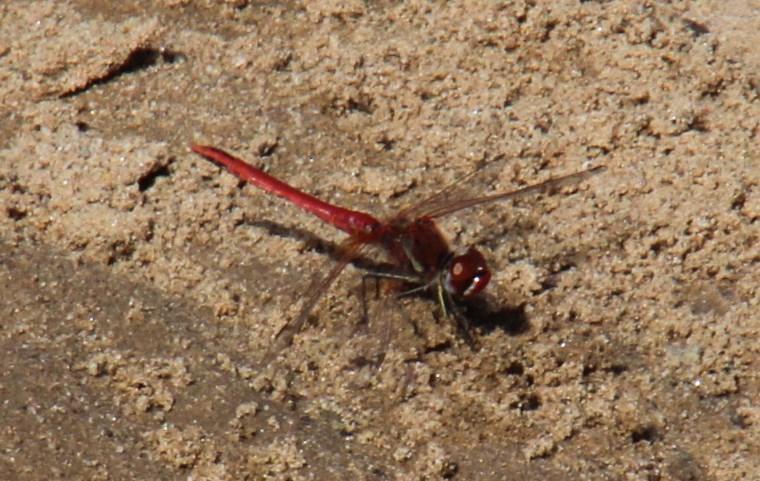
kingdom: Animalia
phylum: Arthropoda
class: Insecta
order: Odonata
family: Libellulidae
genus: Sympetrum
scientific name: Sympetrum fonscolombii
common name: Red-veined darter
